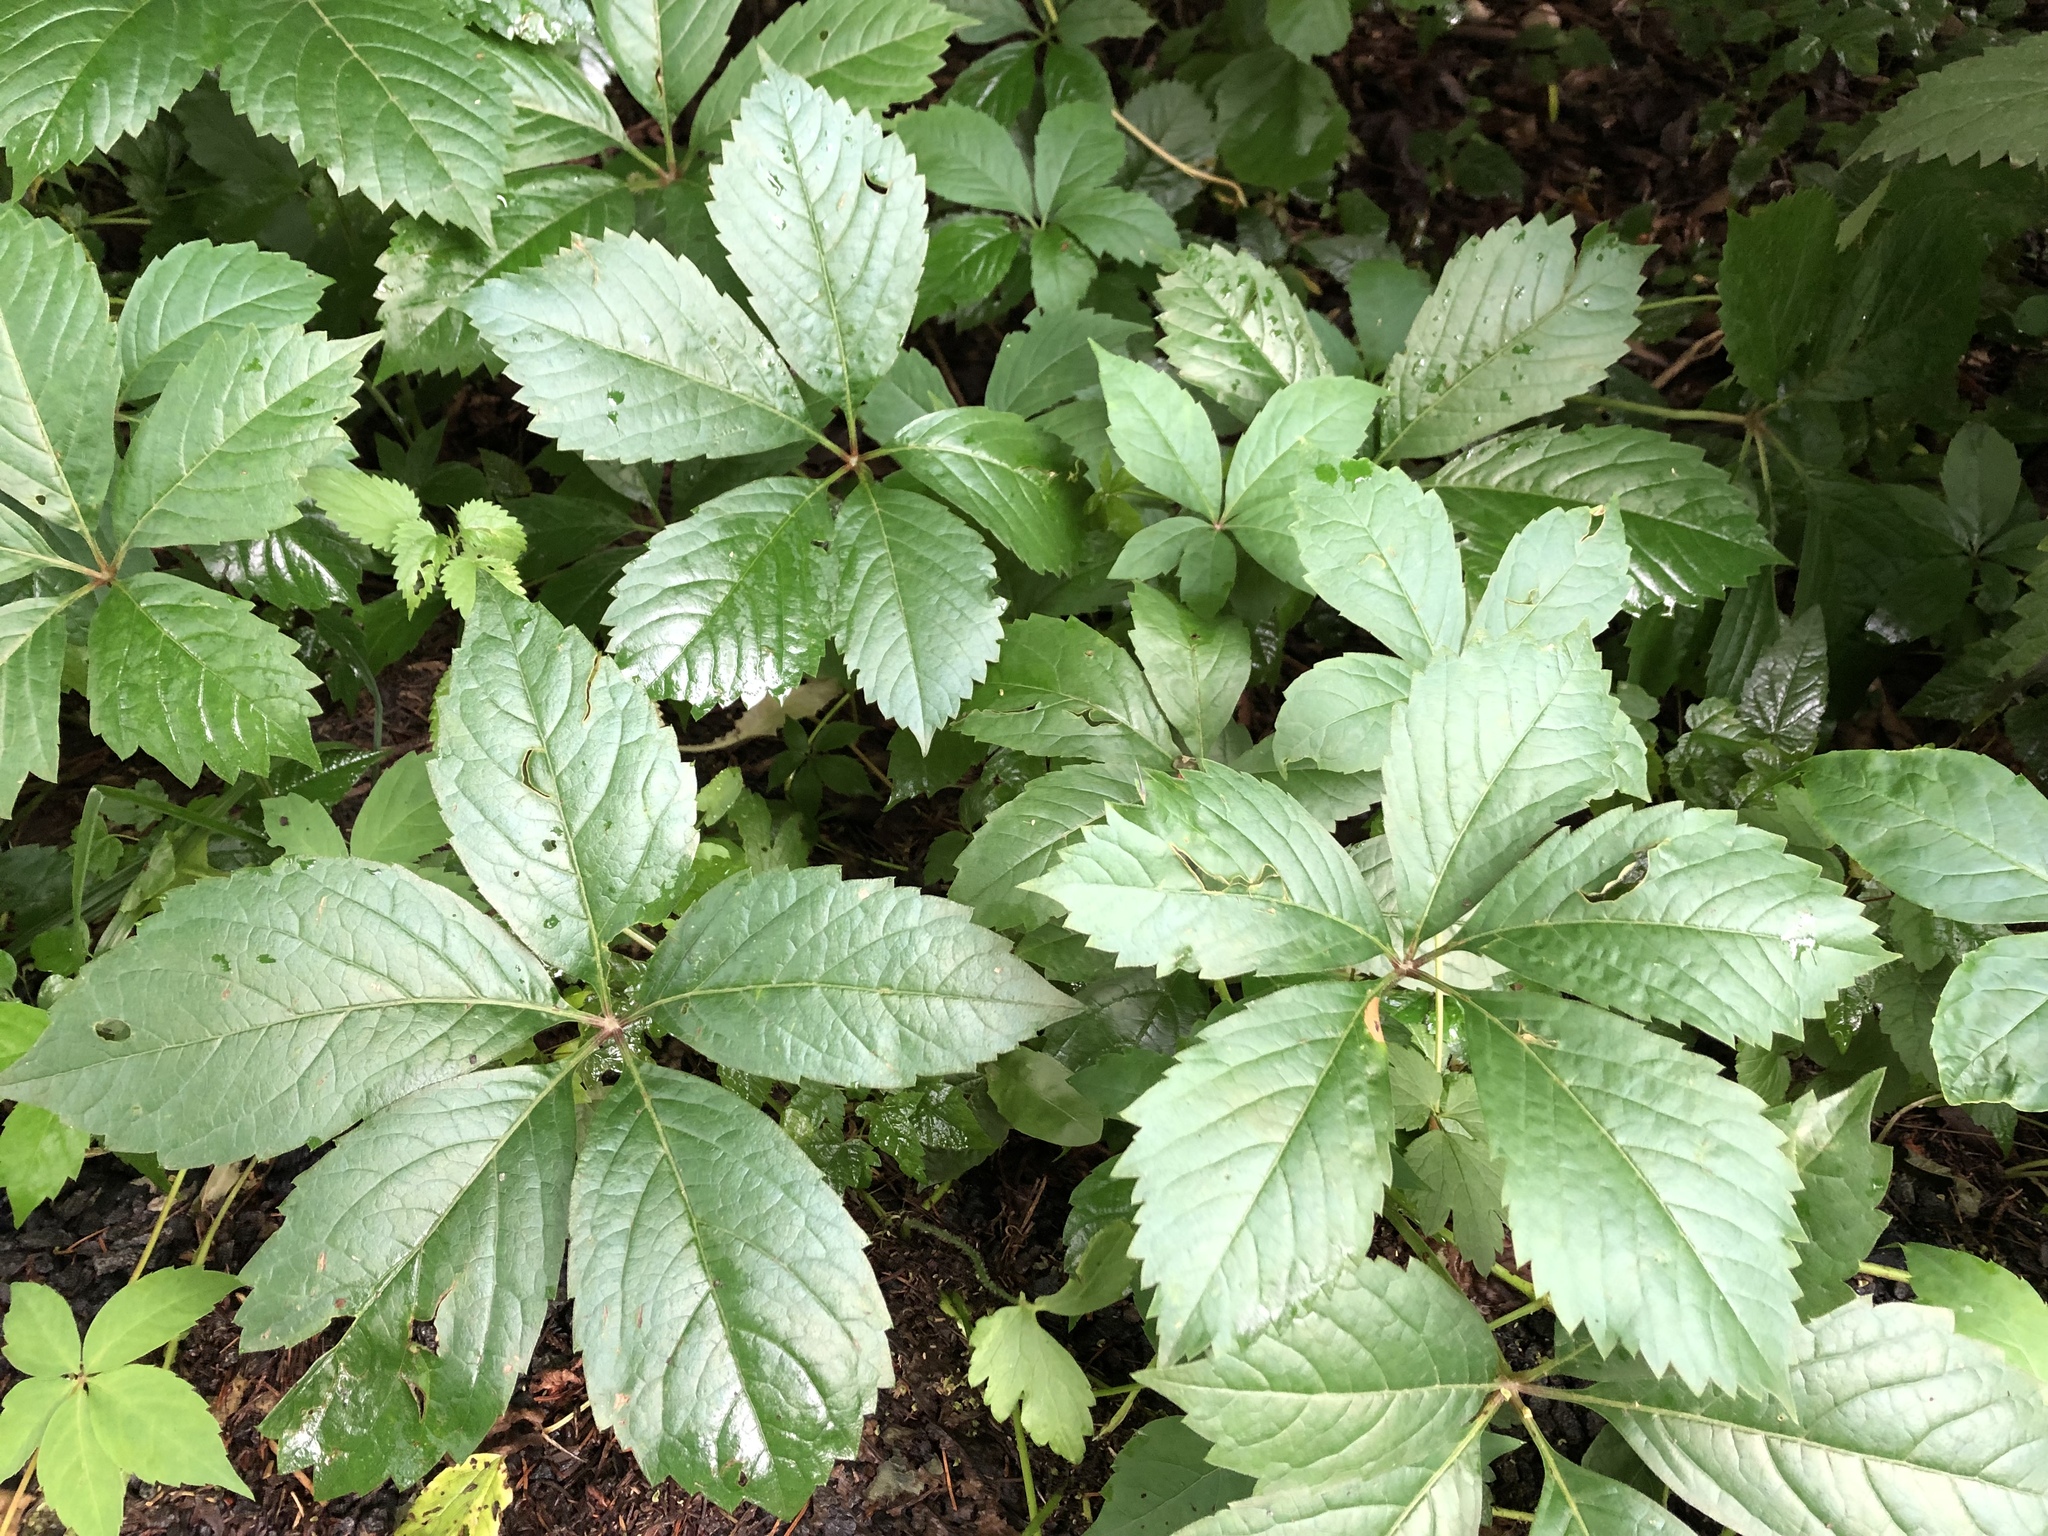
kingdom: Plantae
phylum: Tracheophyta
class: Magnoliopsida
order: Vitales
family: Vitaceae
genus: Parthenocissus
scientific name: Parthenocissus quinquefolia
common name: Virginia-creeper
